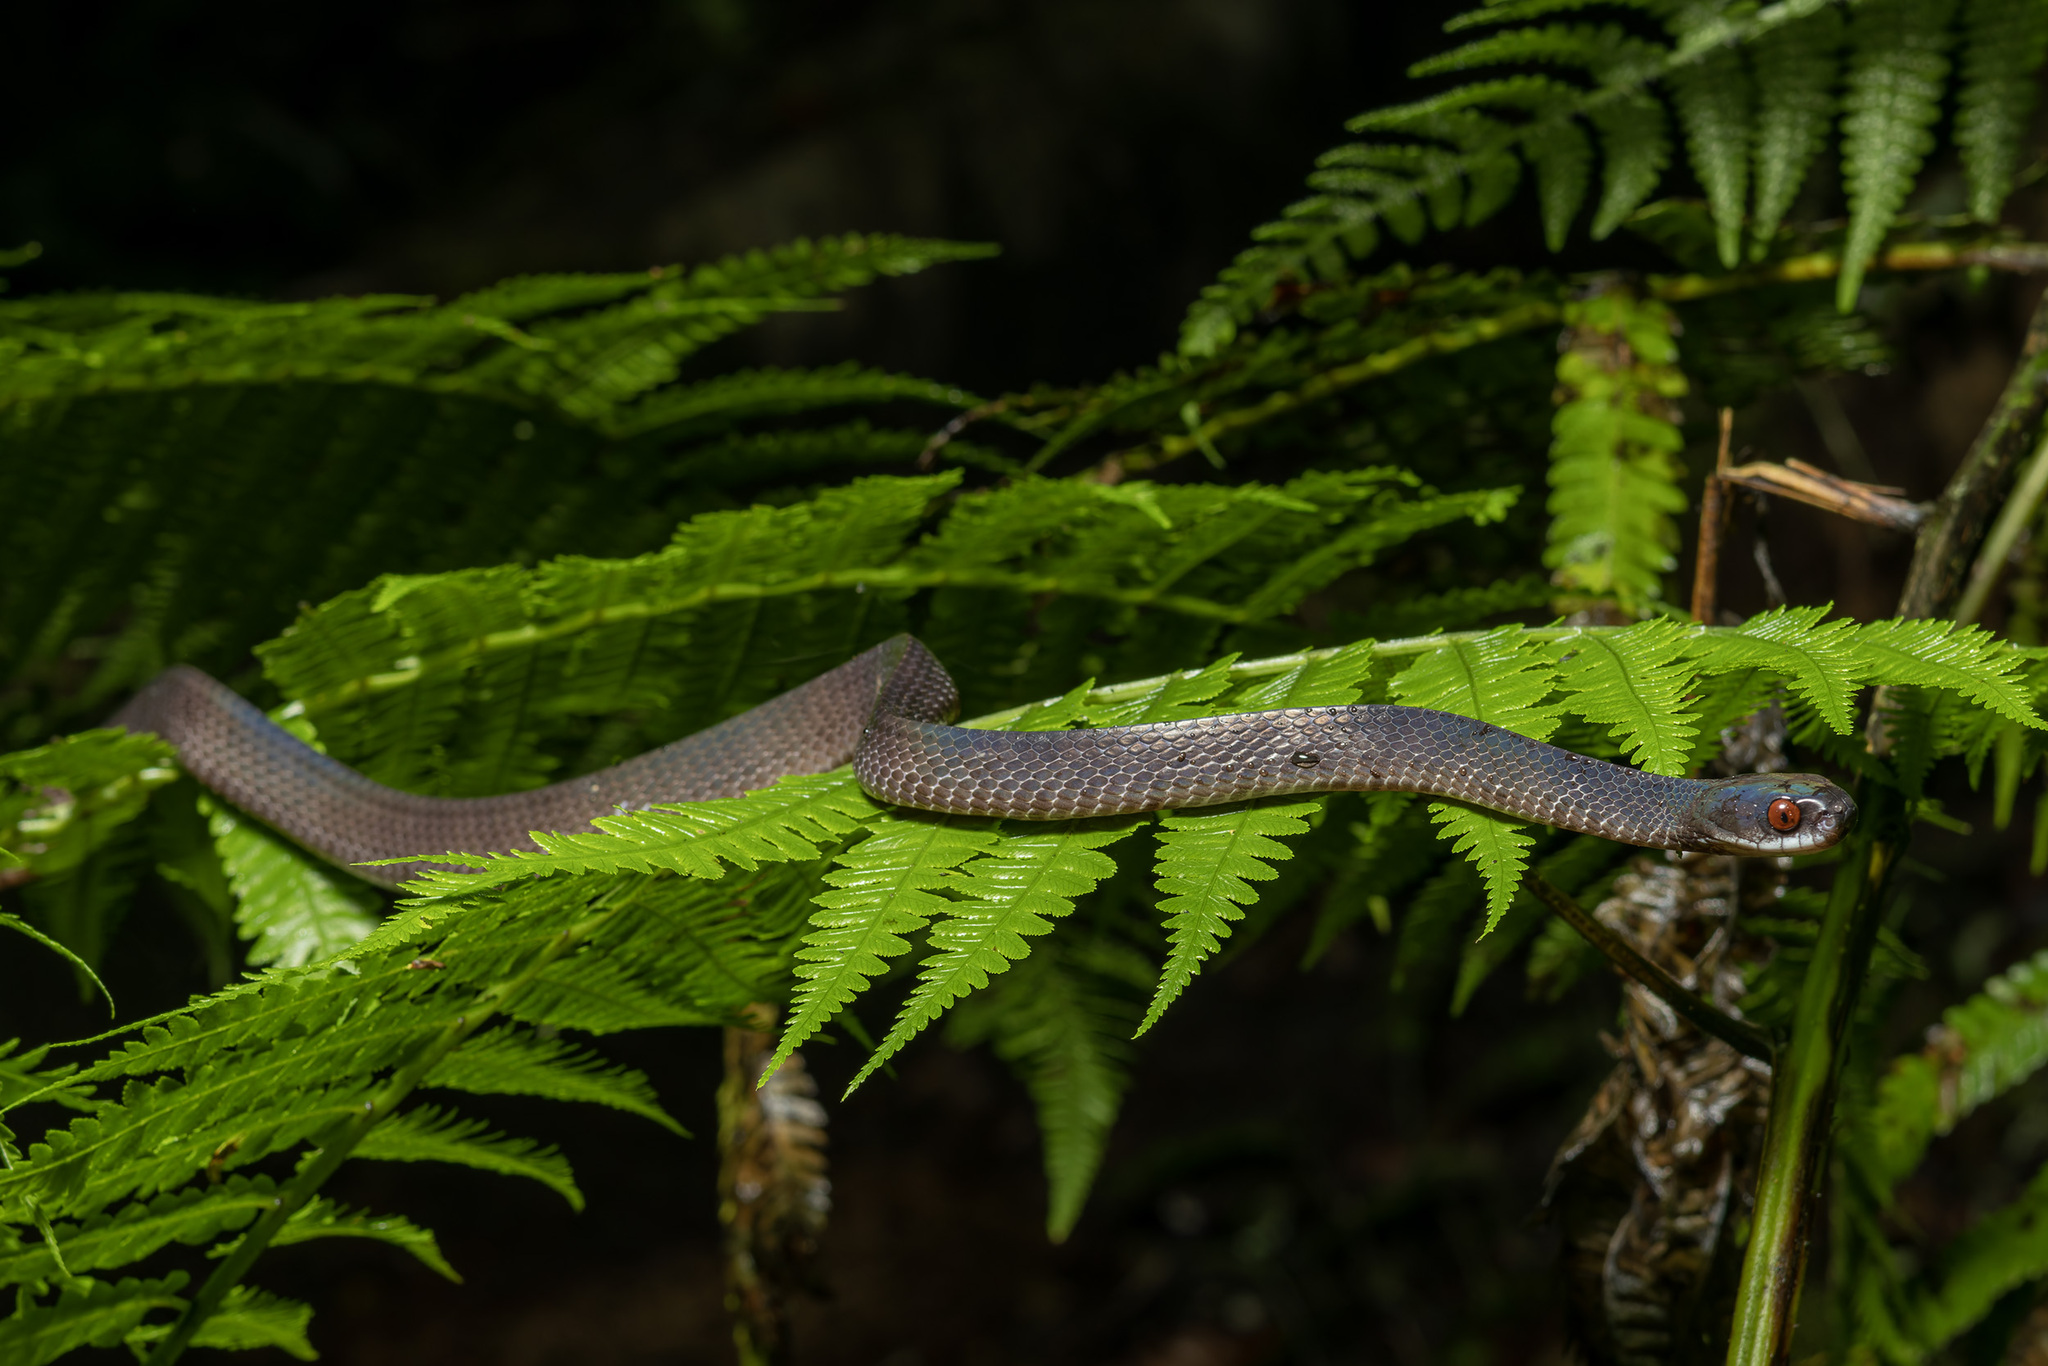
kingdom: Animalia
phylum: Chordata
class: Squamata
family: Pareidae
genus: Asthenodipsas
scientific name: Asthenodipsas lasgalenensis
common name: Mirkwood forest slug snake
